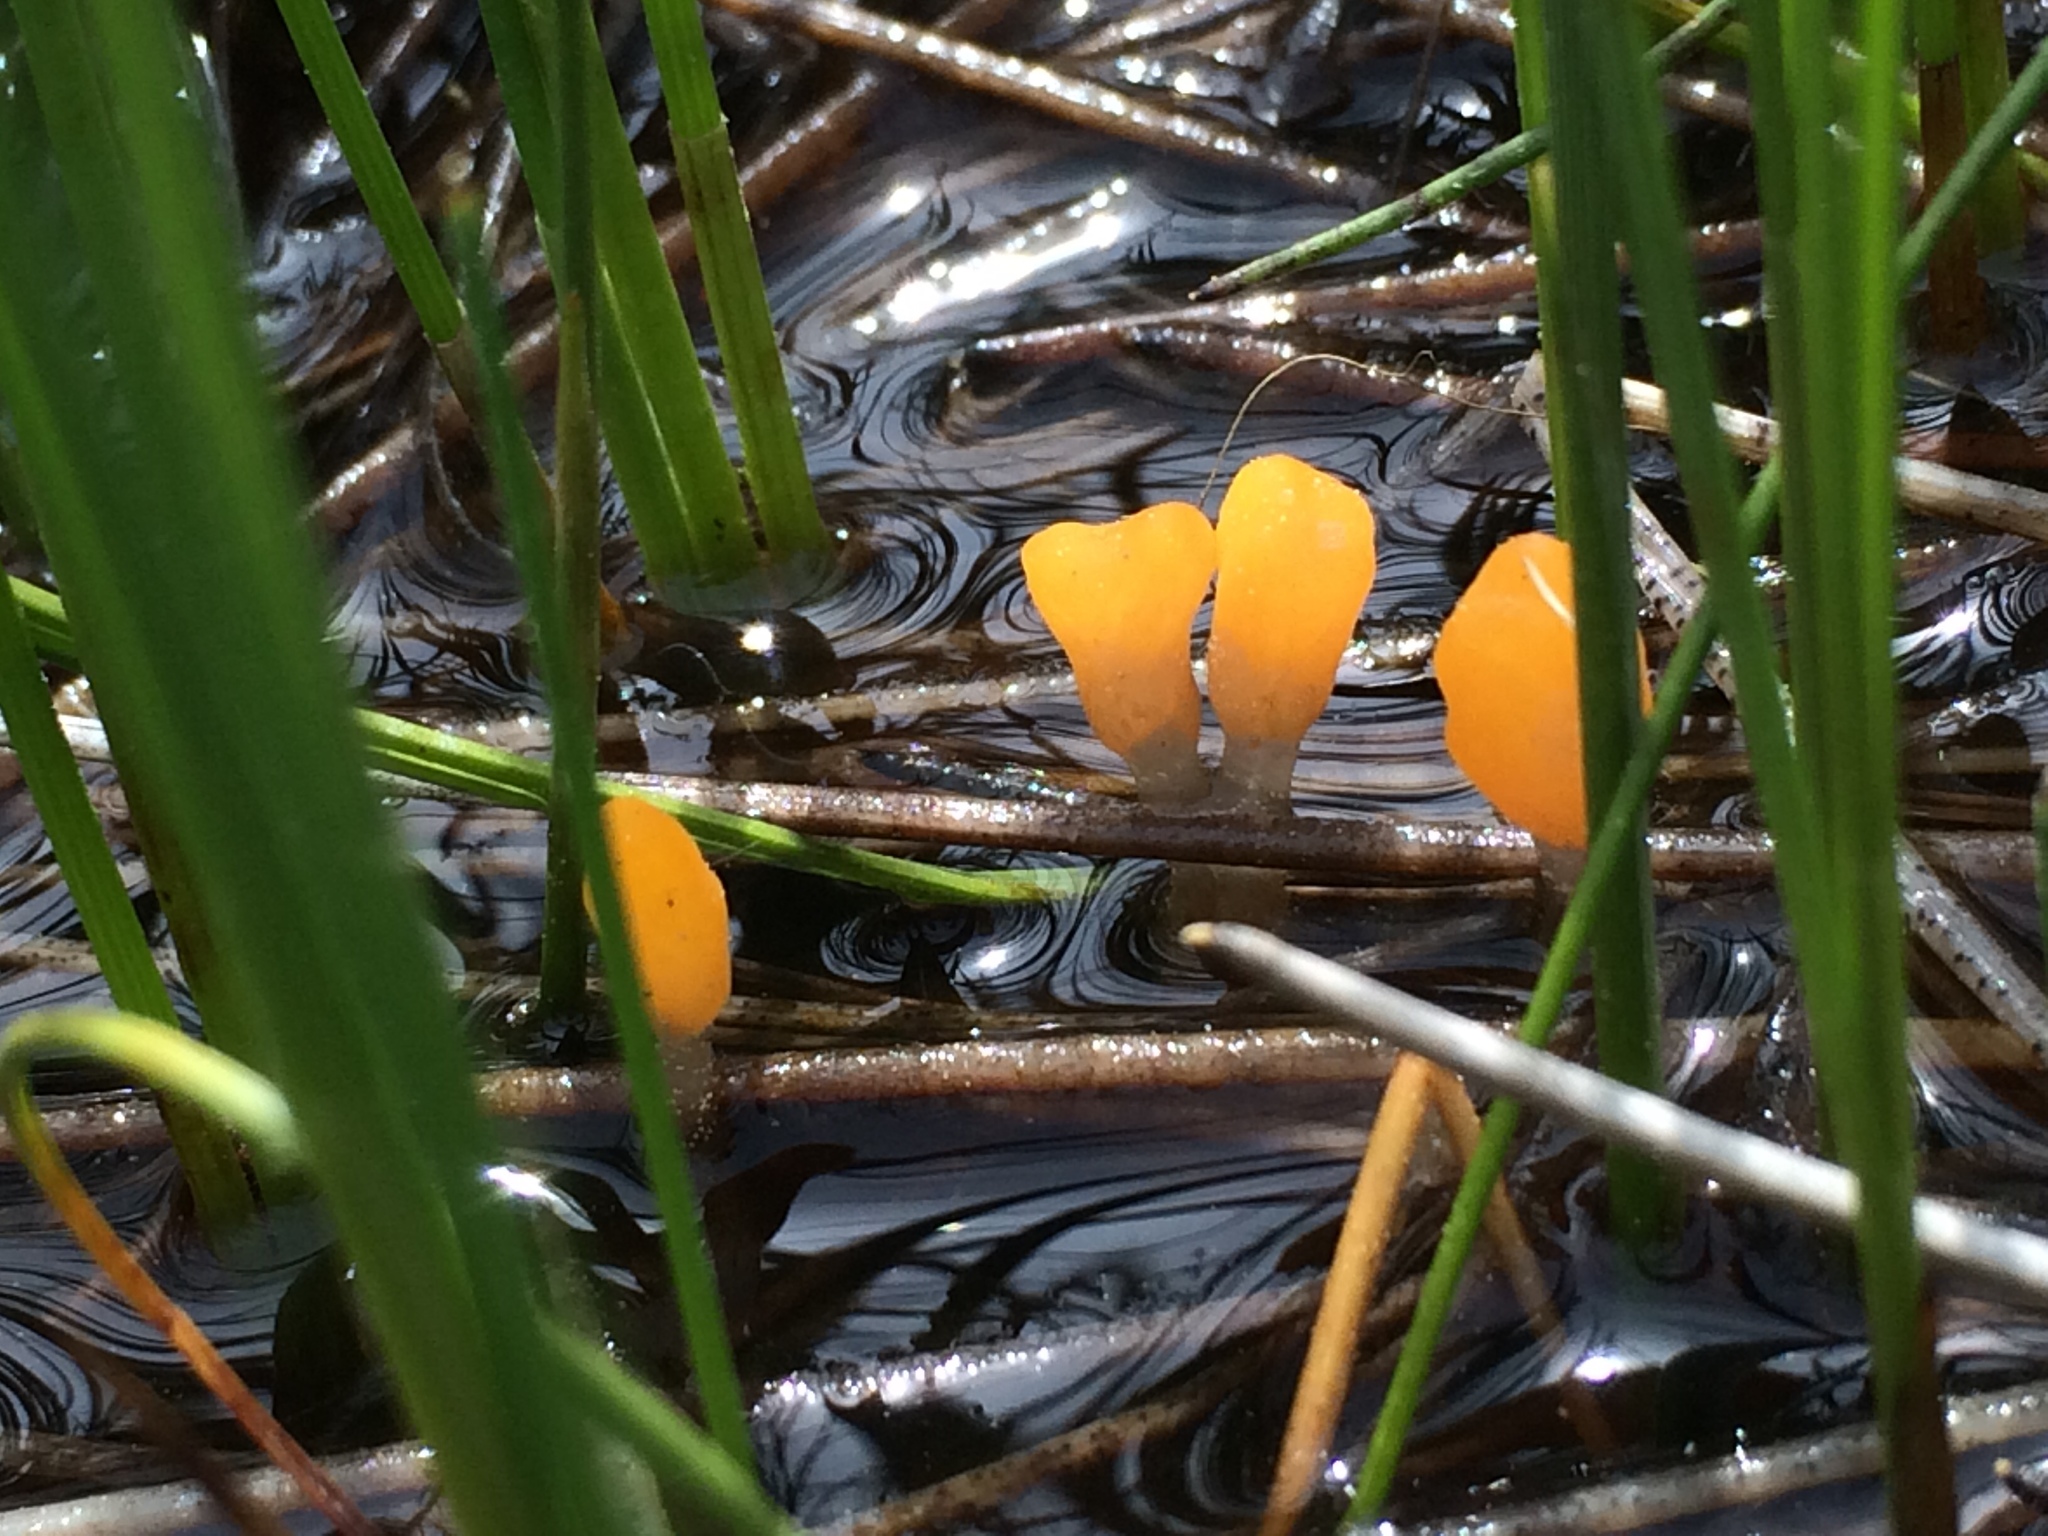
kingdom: Fungi
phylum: Ascomycota
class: Leotiomycetes
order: Helotiales
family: Sclerotiniaceae
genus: Mitrula
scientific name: Mitrula elegans
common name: Swamp beacon
